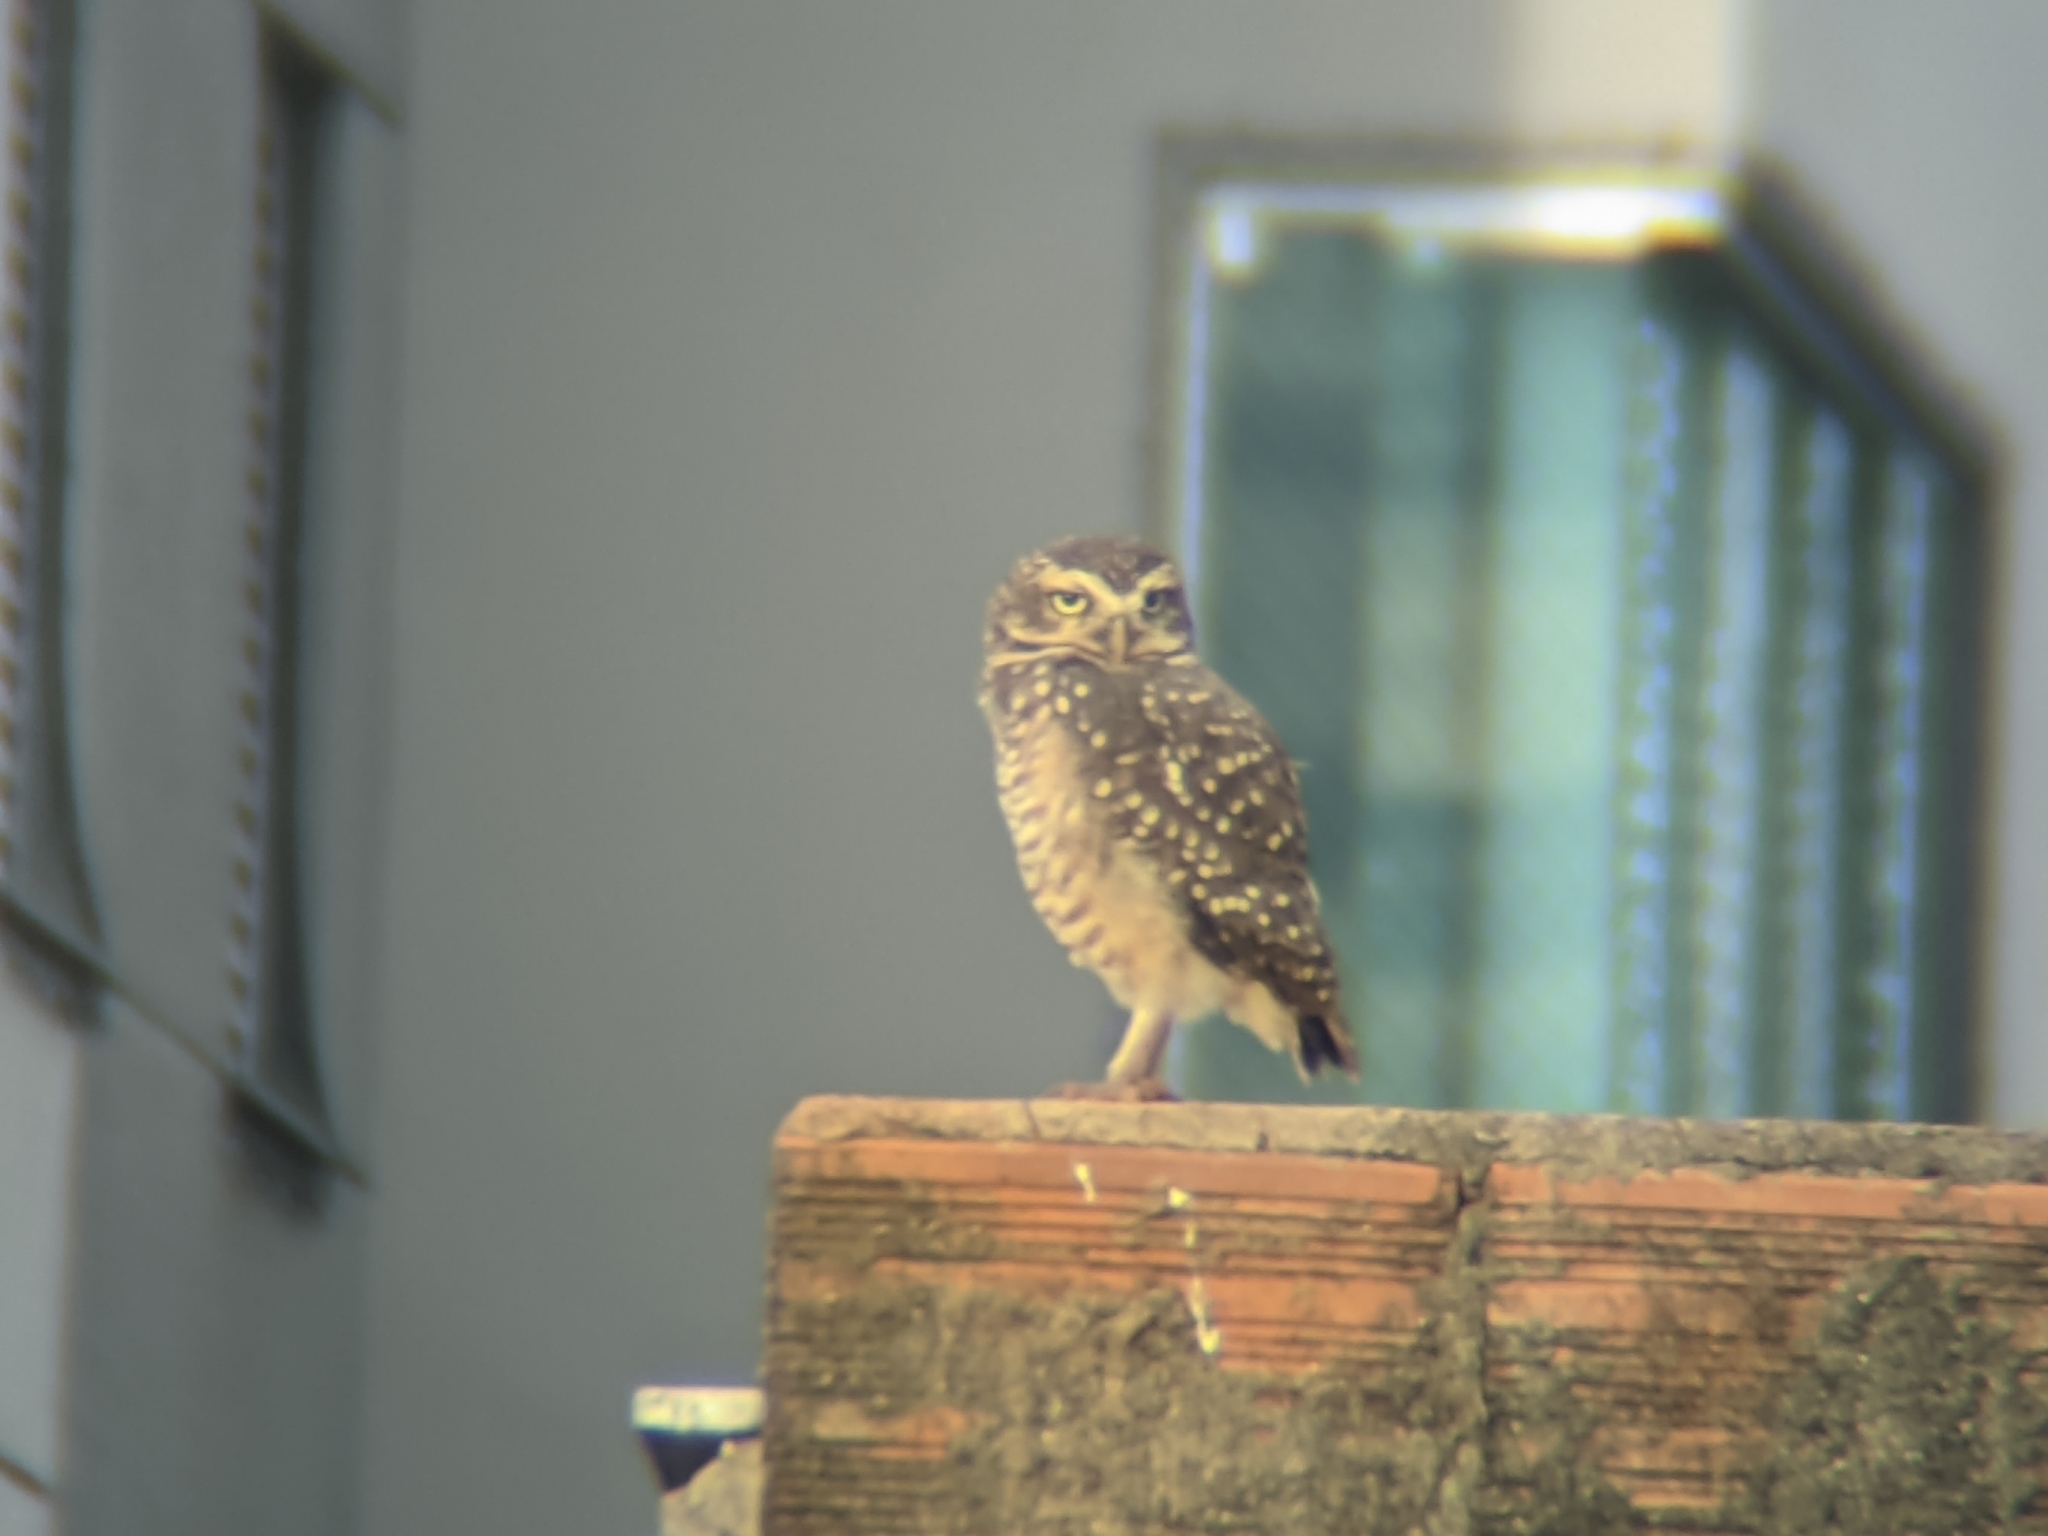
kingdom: Animalia
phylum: Chordata
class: Aves
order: Strigiformes
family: Strigidae
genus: Athene
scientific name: Athene cunicularia
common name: Burrowing owl
